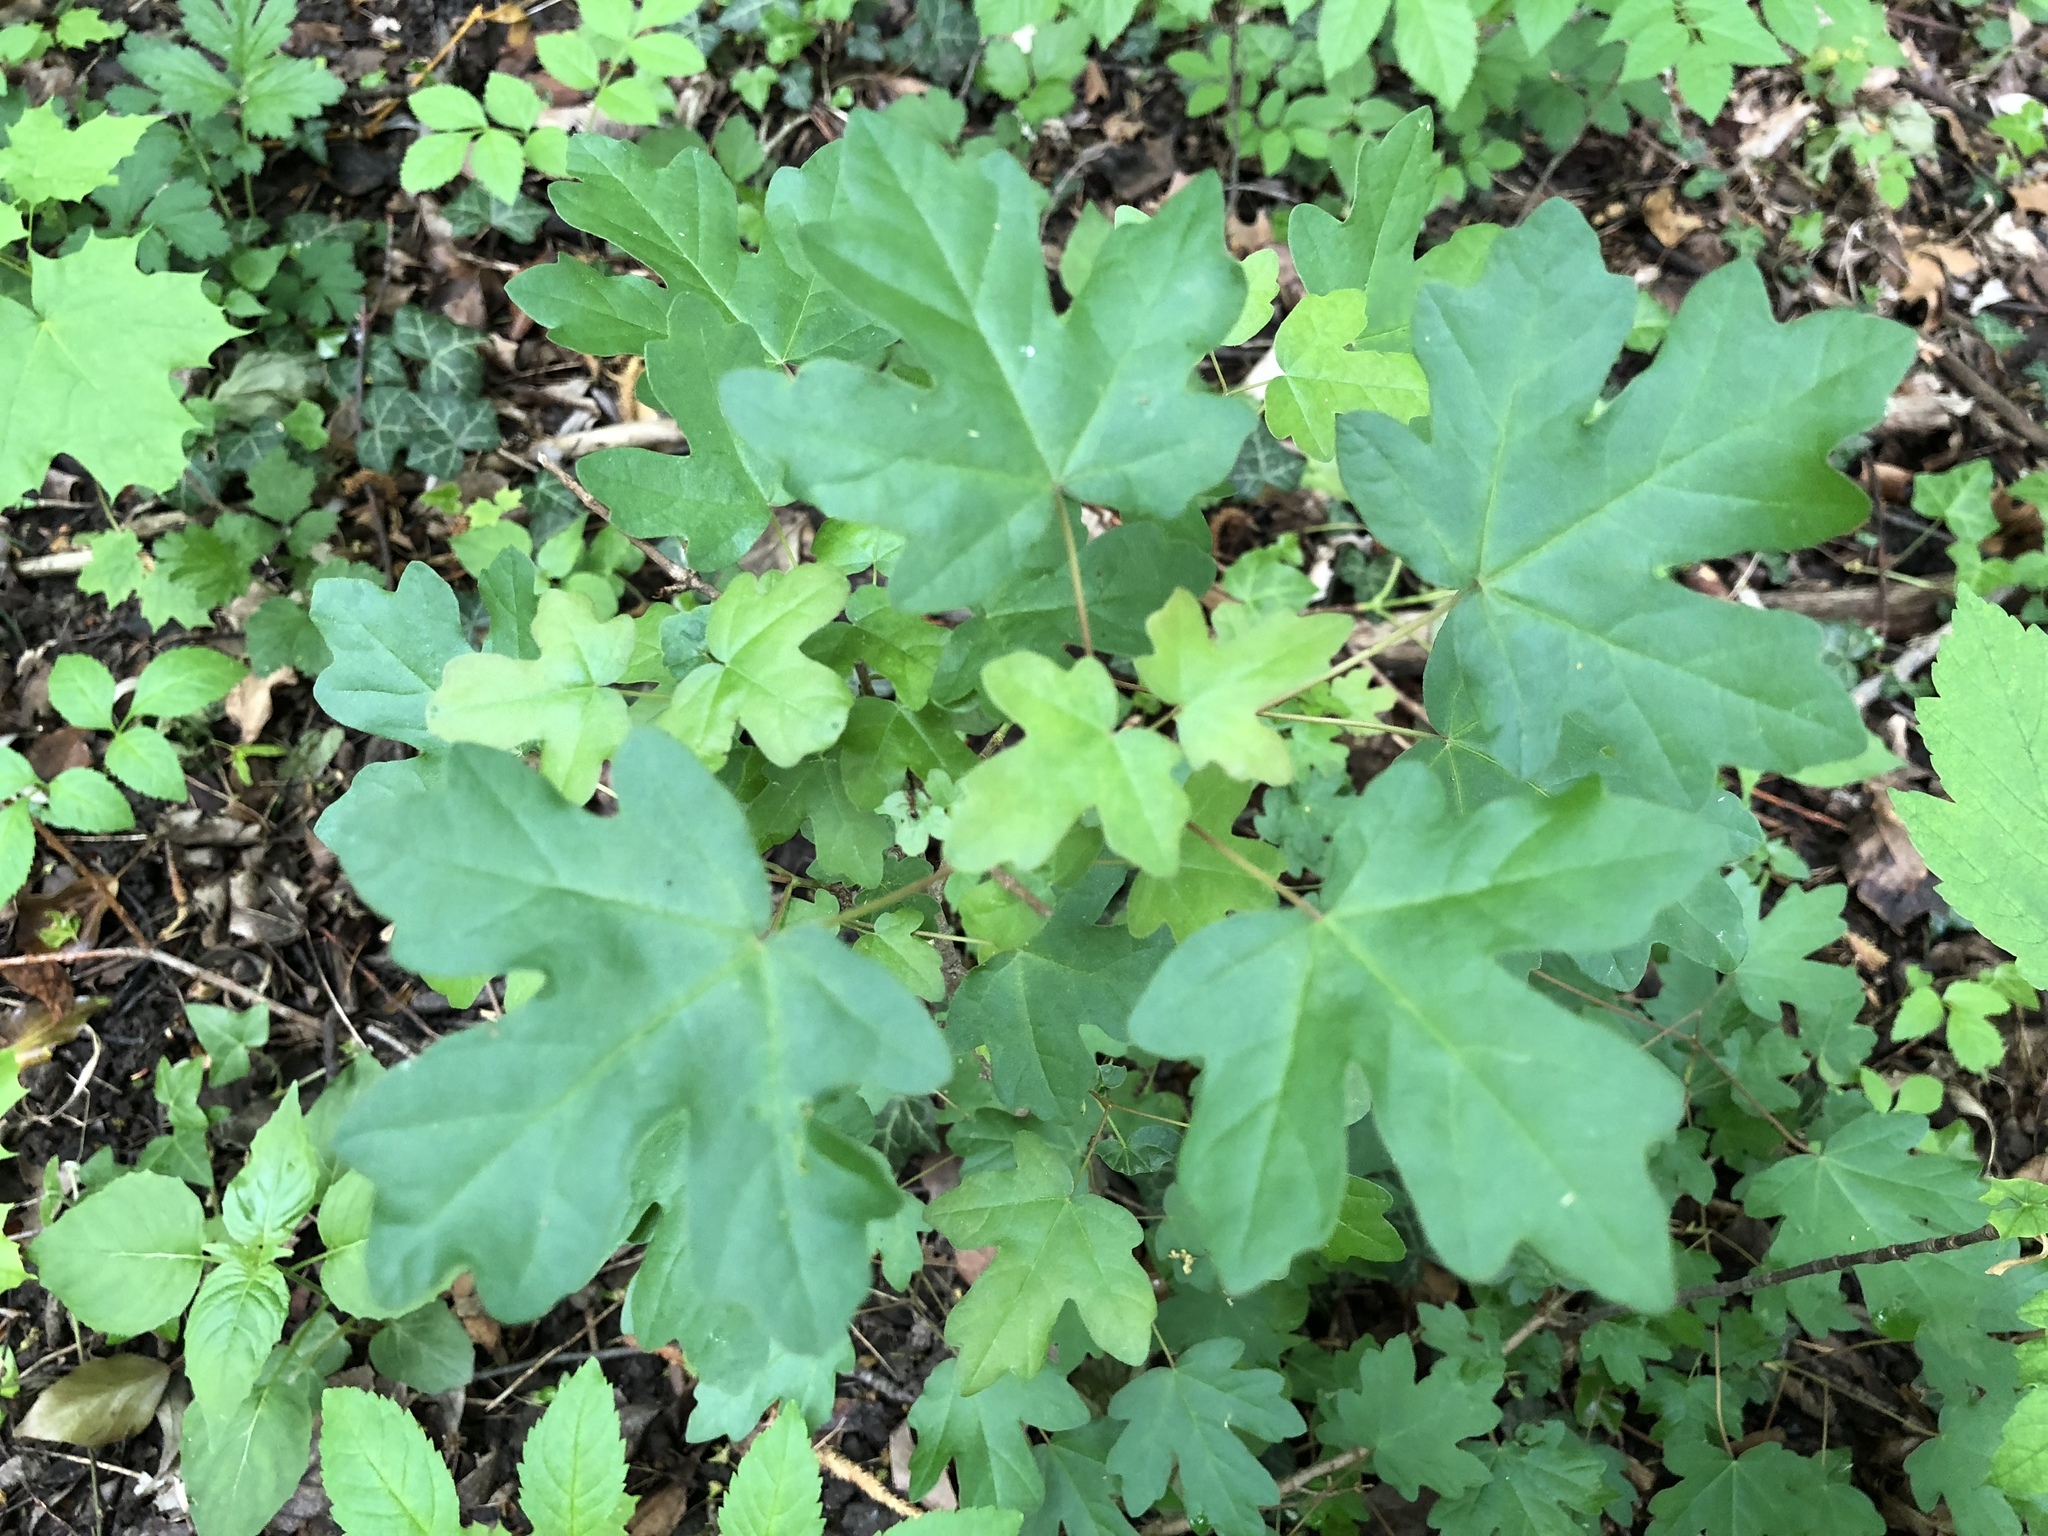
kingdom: Plantae
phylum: Tracheophyta
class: Magnoliopsida
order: Sapindales
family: Sapindaceae
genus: Acer
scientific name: Acer campestre
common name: Field maple
